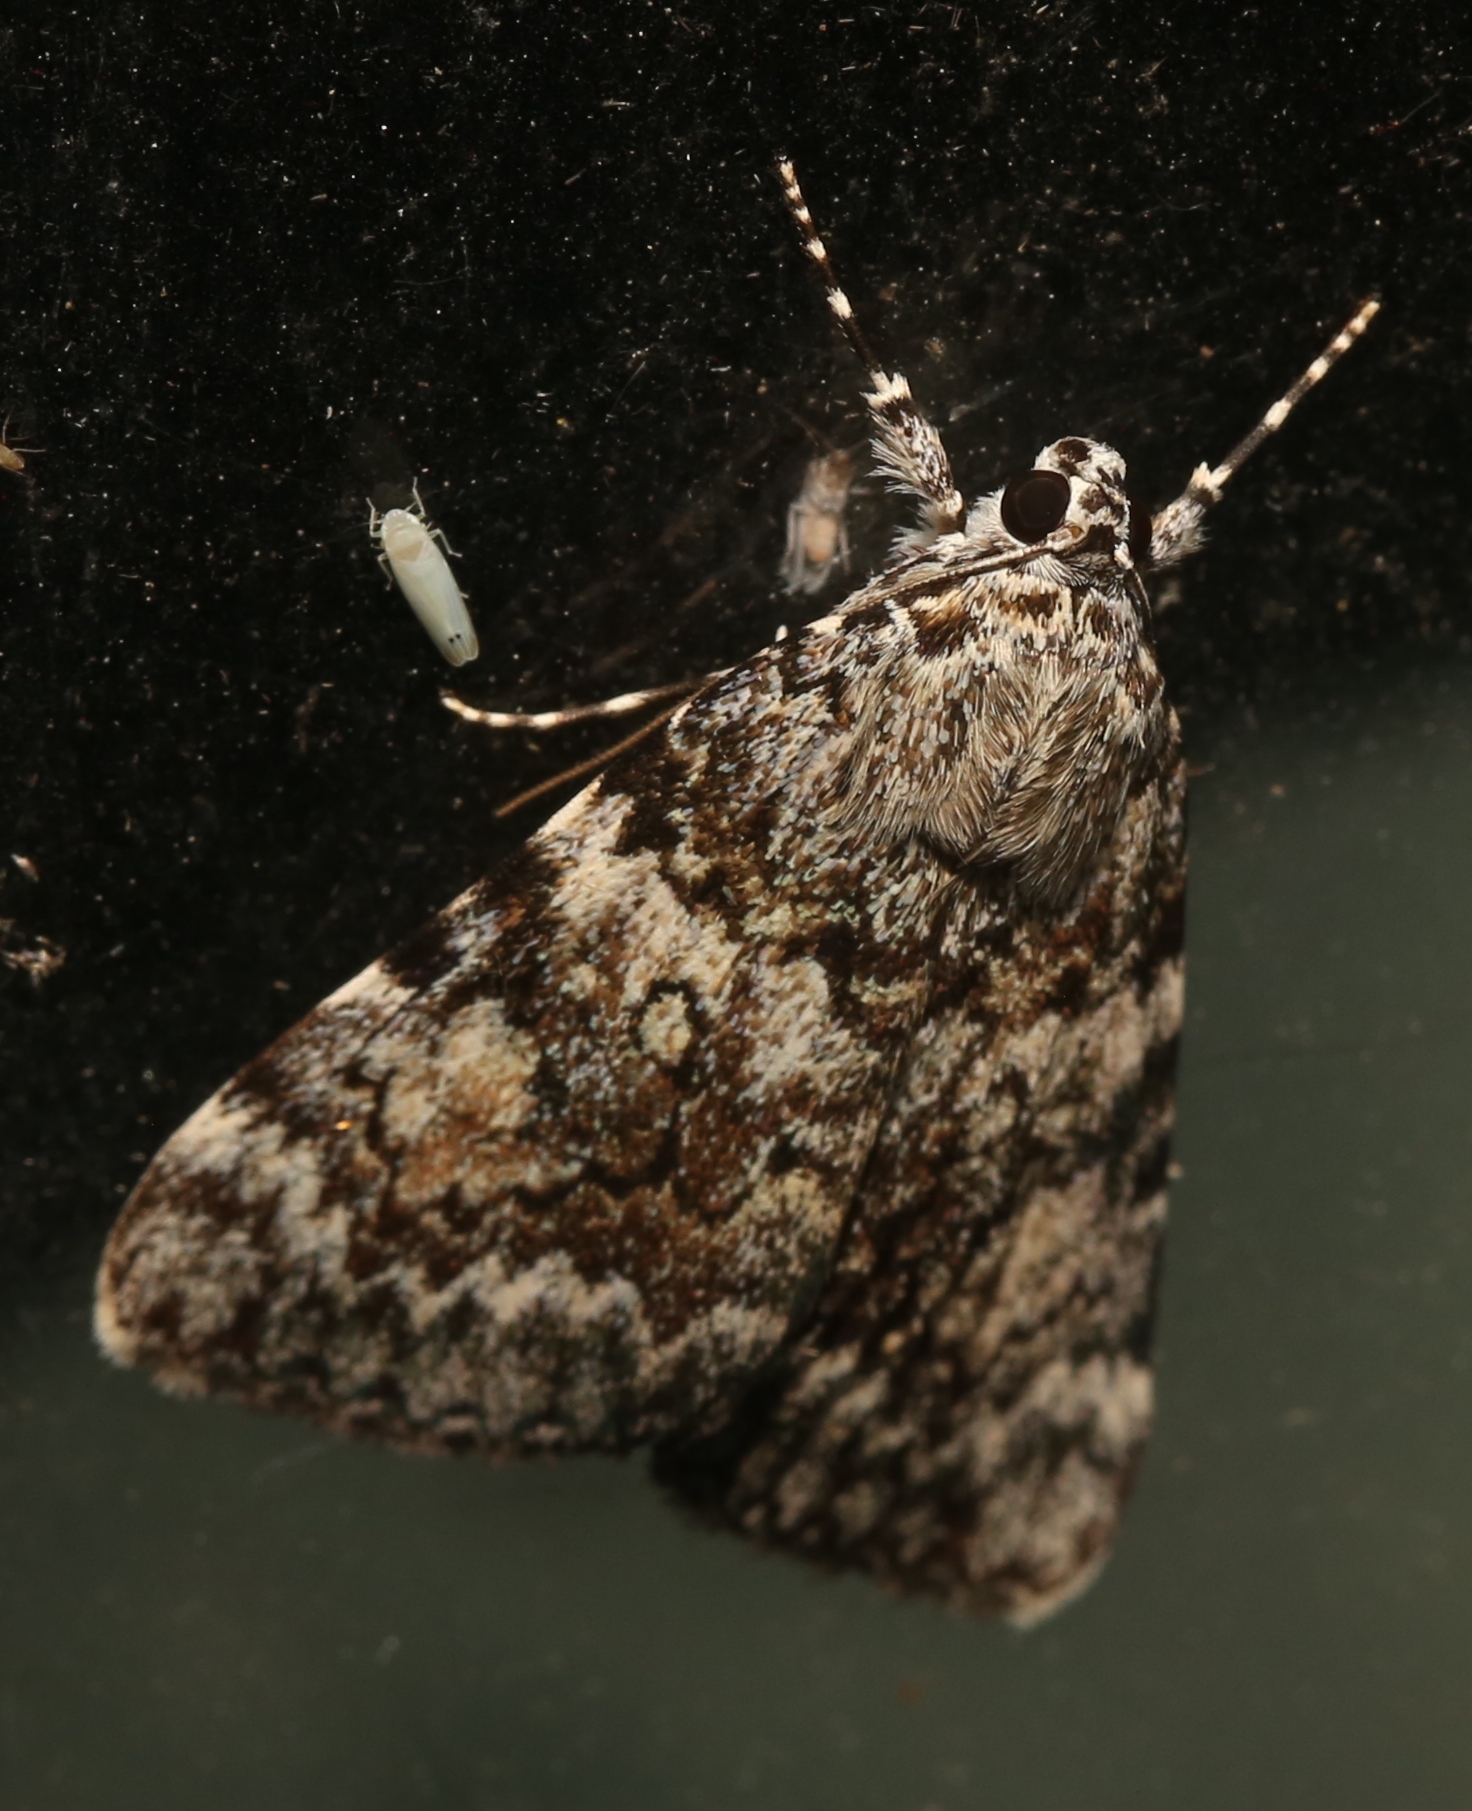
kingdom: Animalia
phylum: Arthropoda
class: Insecta
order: Lepidoptera
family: Erebidae
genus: Catocala
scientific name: Catocala lineella
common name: Little lined underwing
